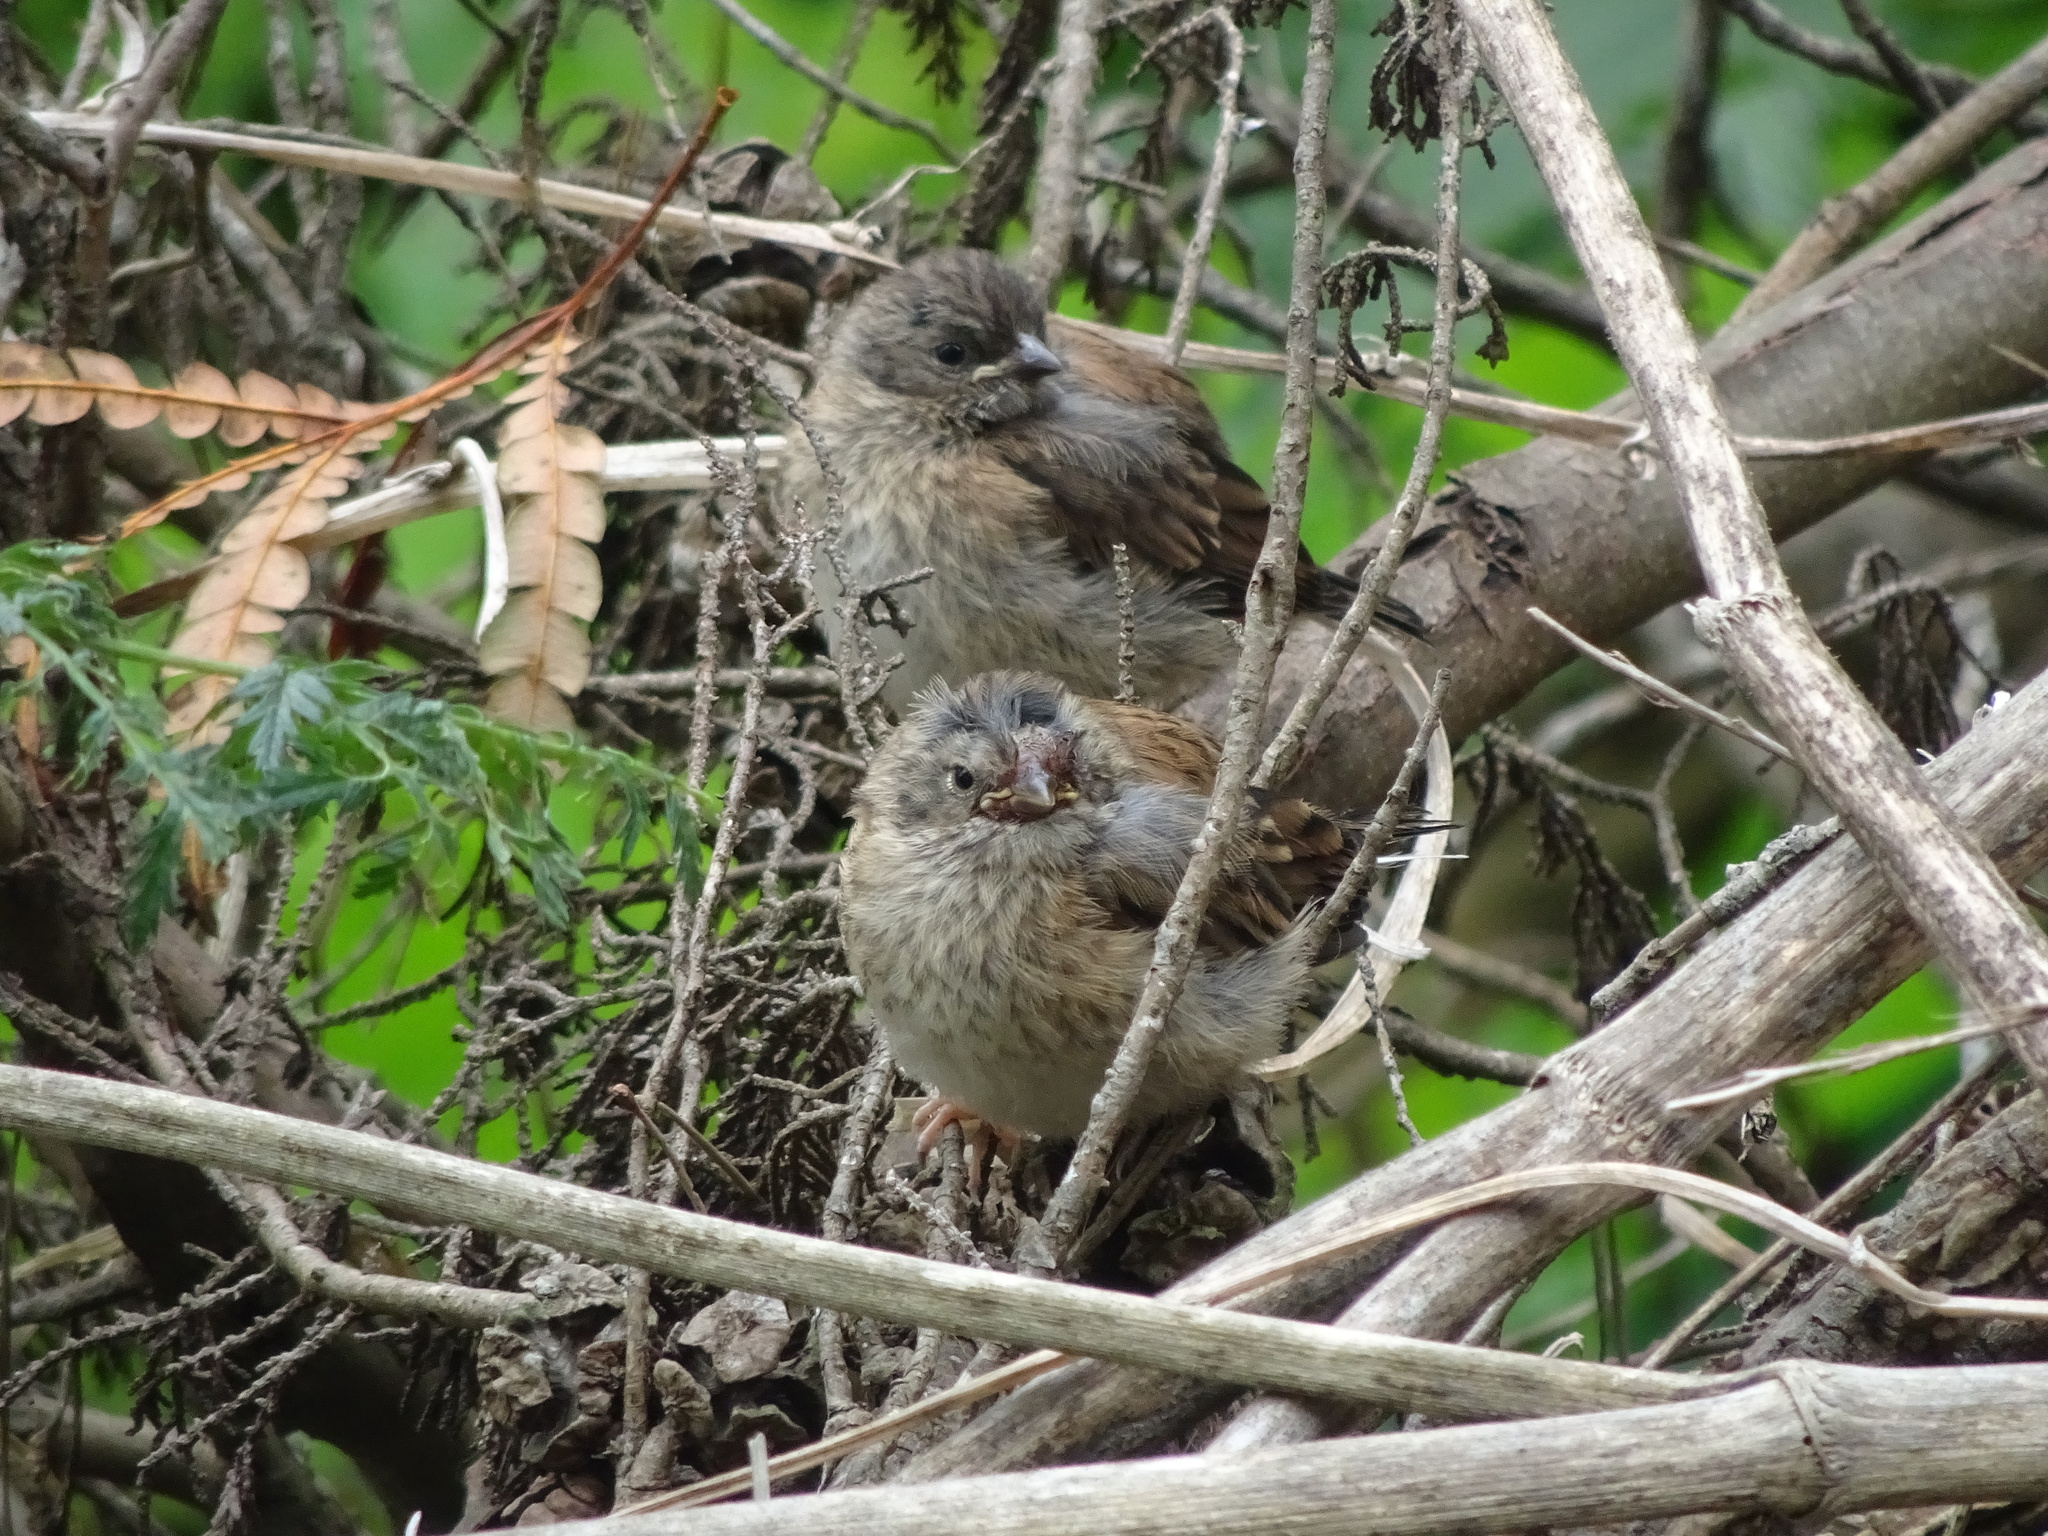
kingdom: Animalia
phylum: Chordata
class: Aves
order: Passeriformes
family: Passerellidae
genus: Junco
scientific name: Junco hyemalis
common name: Dark-eyed junco
